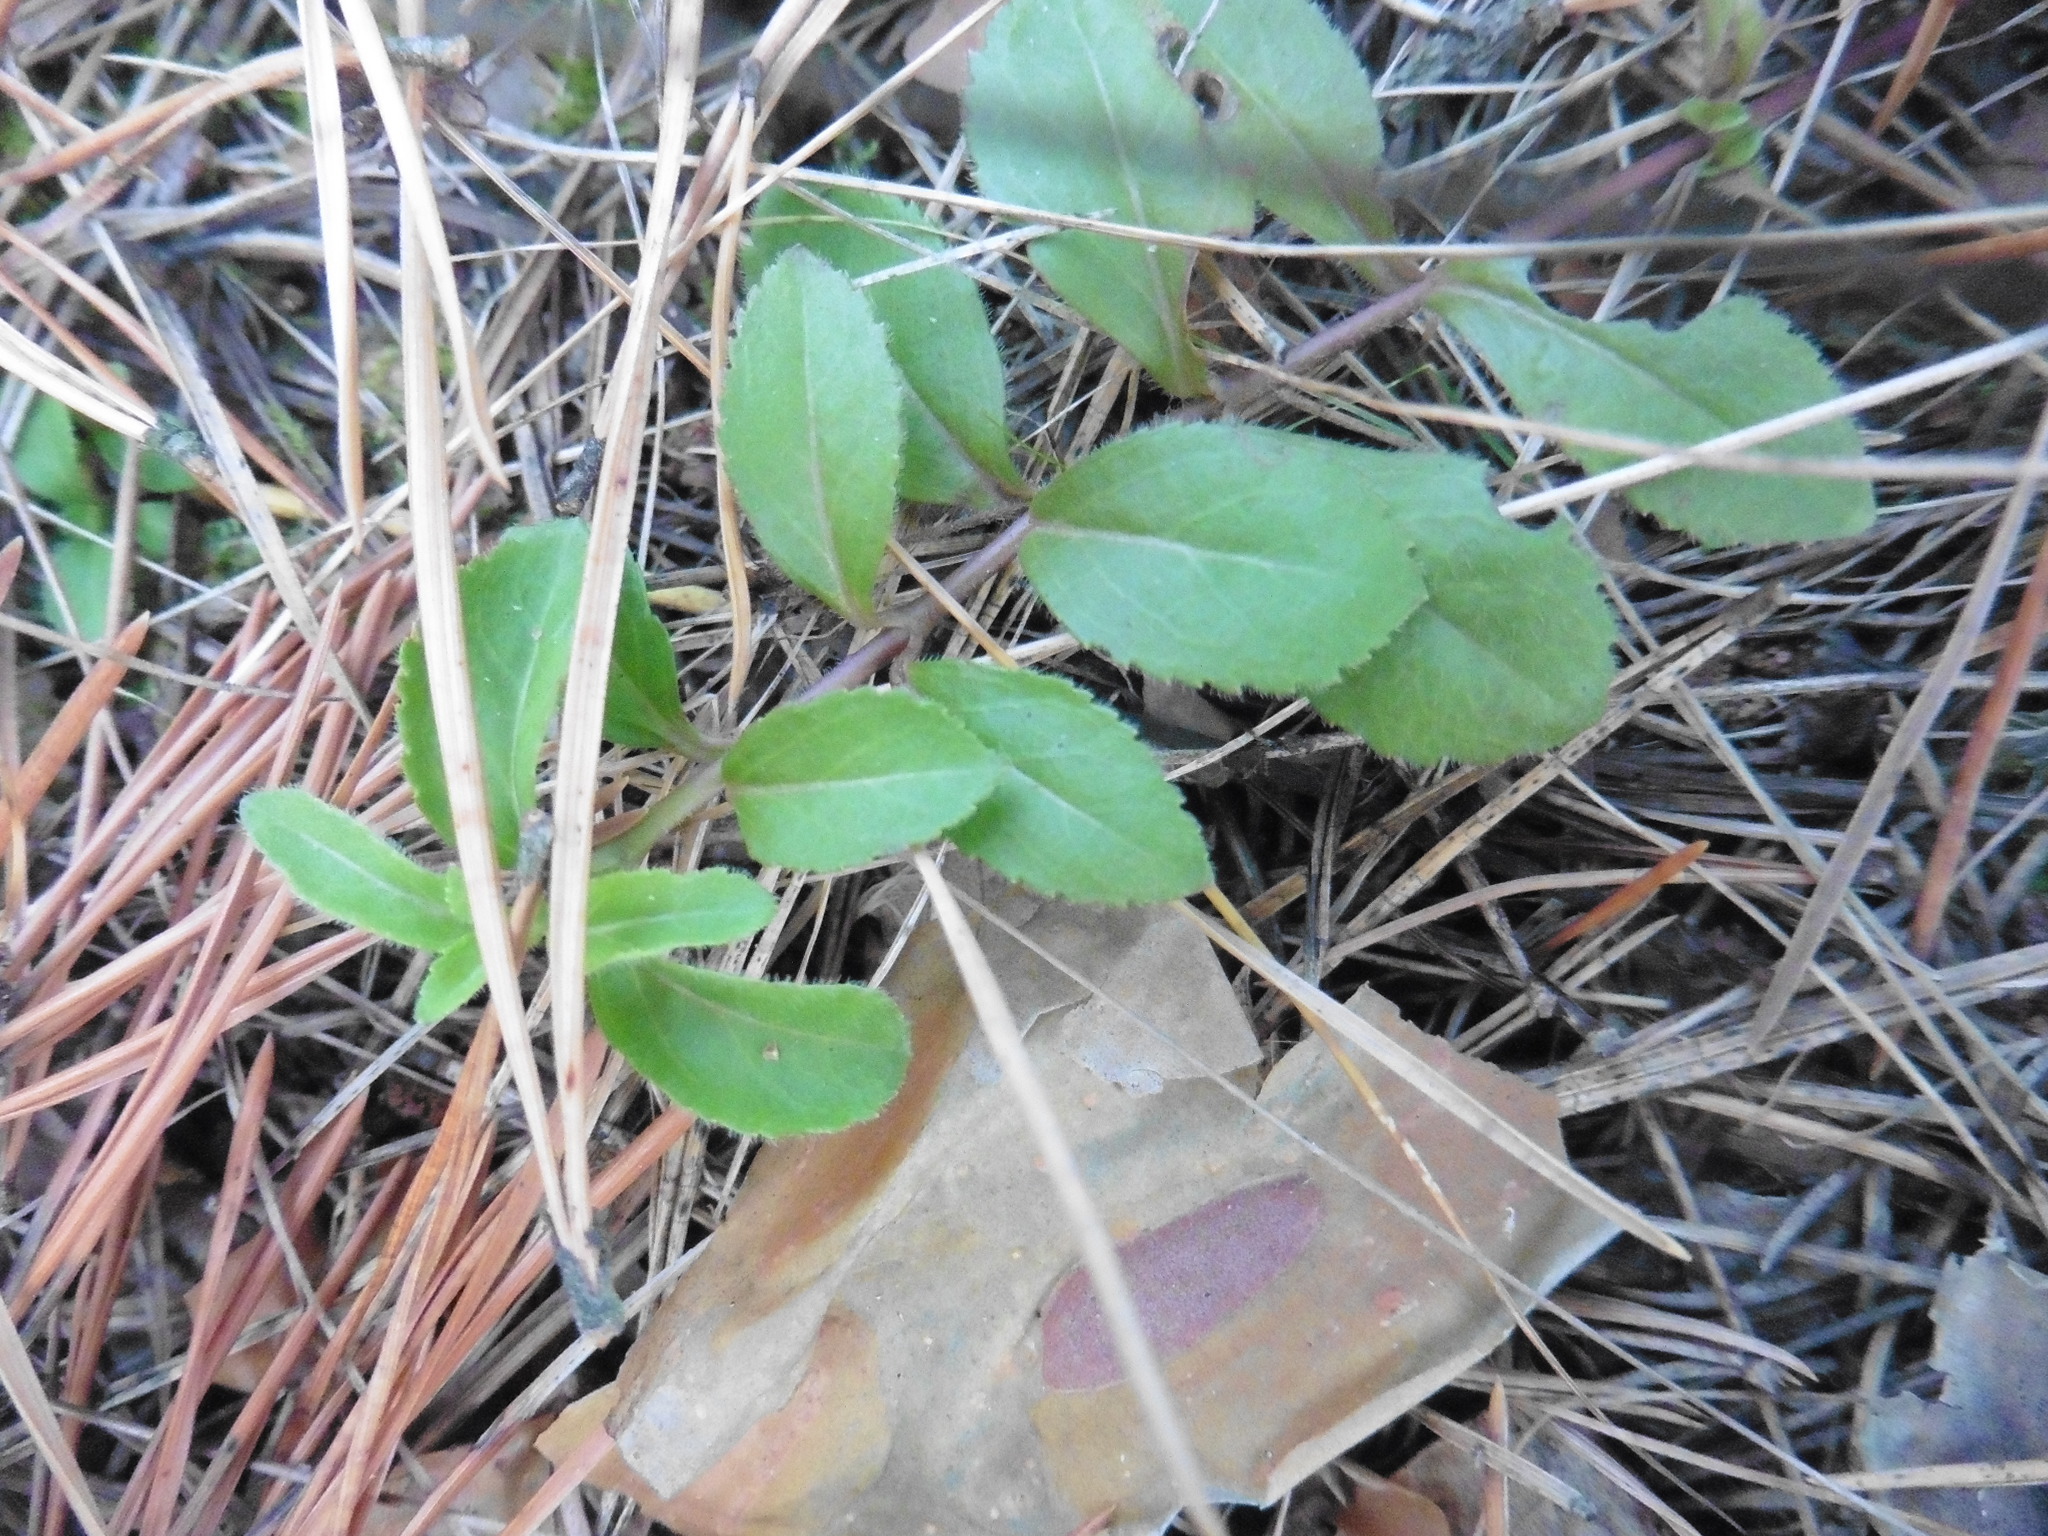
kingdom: Plantae
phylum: Tracheophyta
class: Magnoliopsida
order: Lamiales
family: Plantaginaceae
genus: Veronica
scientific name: Veronica officinalis
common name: Common speedwell
